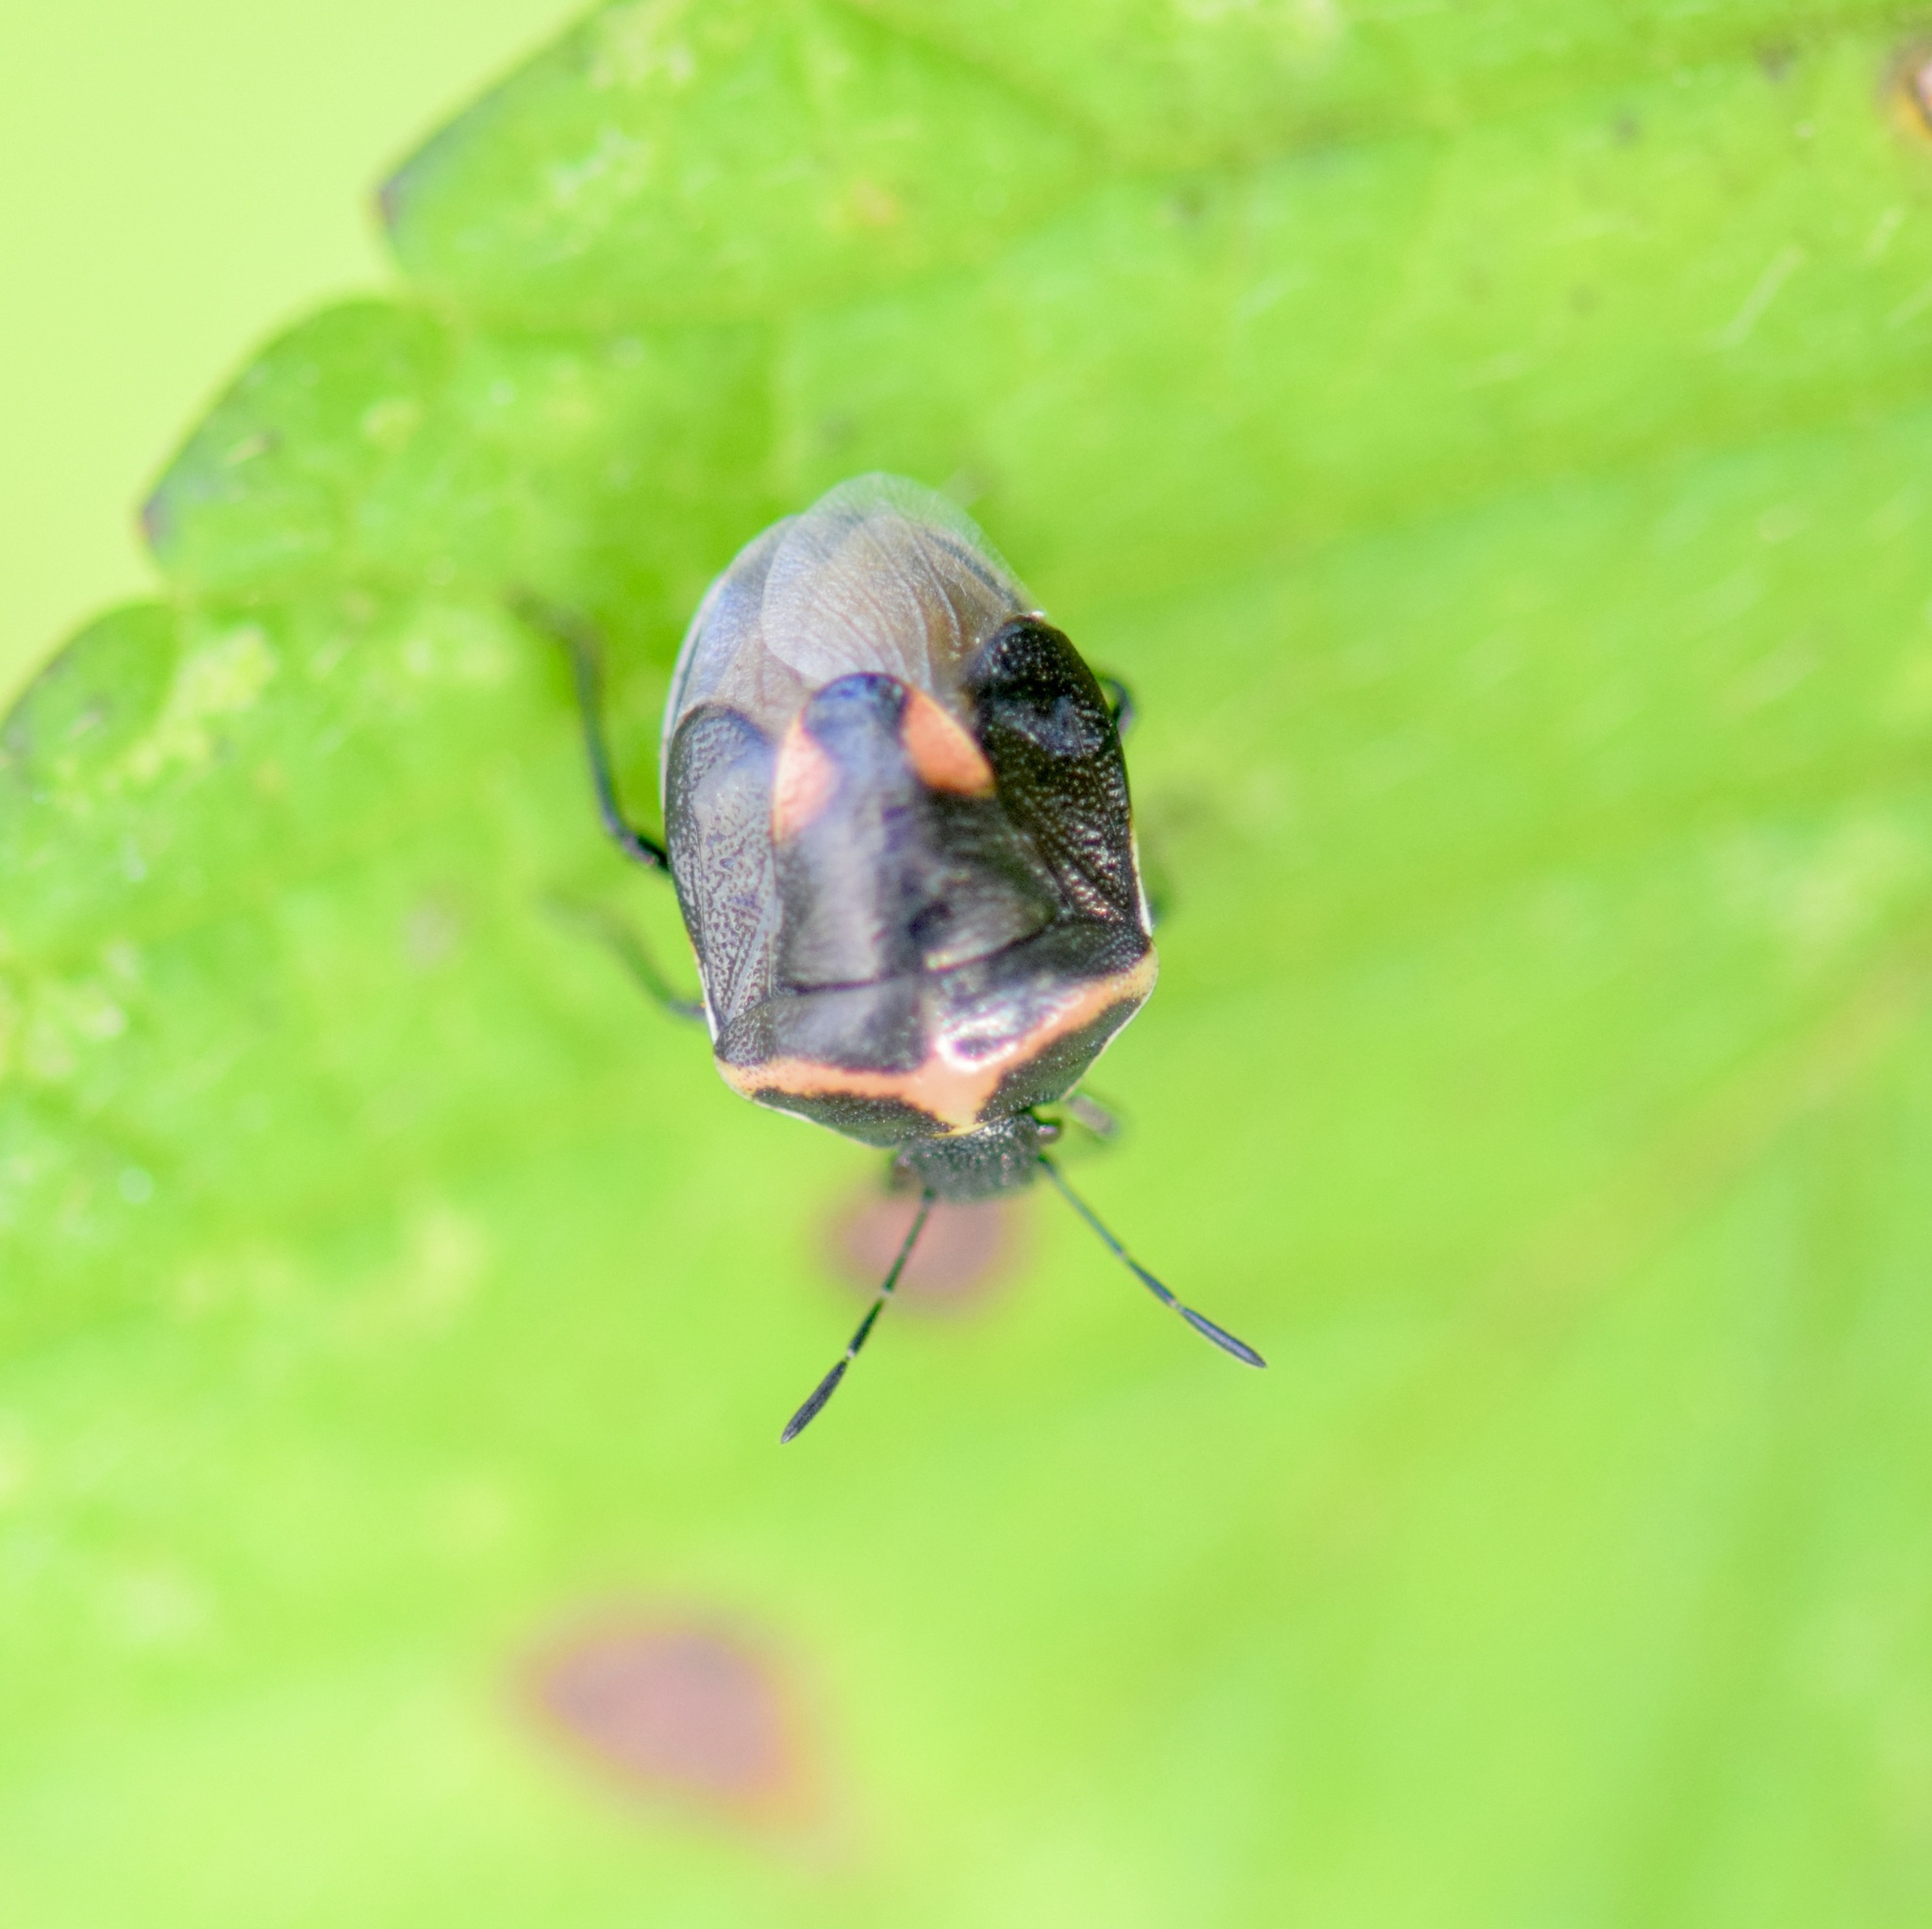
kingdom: Animalia
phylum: Arthropoda
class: Insecta
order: Hemiptera
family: Pentatomidae
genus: Cosmopepla
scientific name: Cosmopepla lintneriana
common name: Twice-stabbed stink bug
